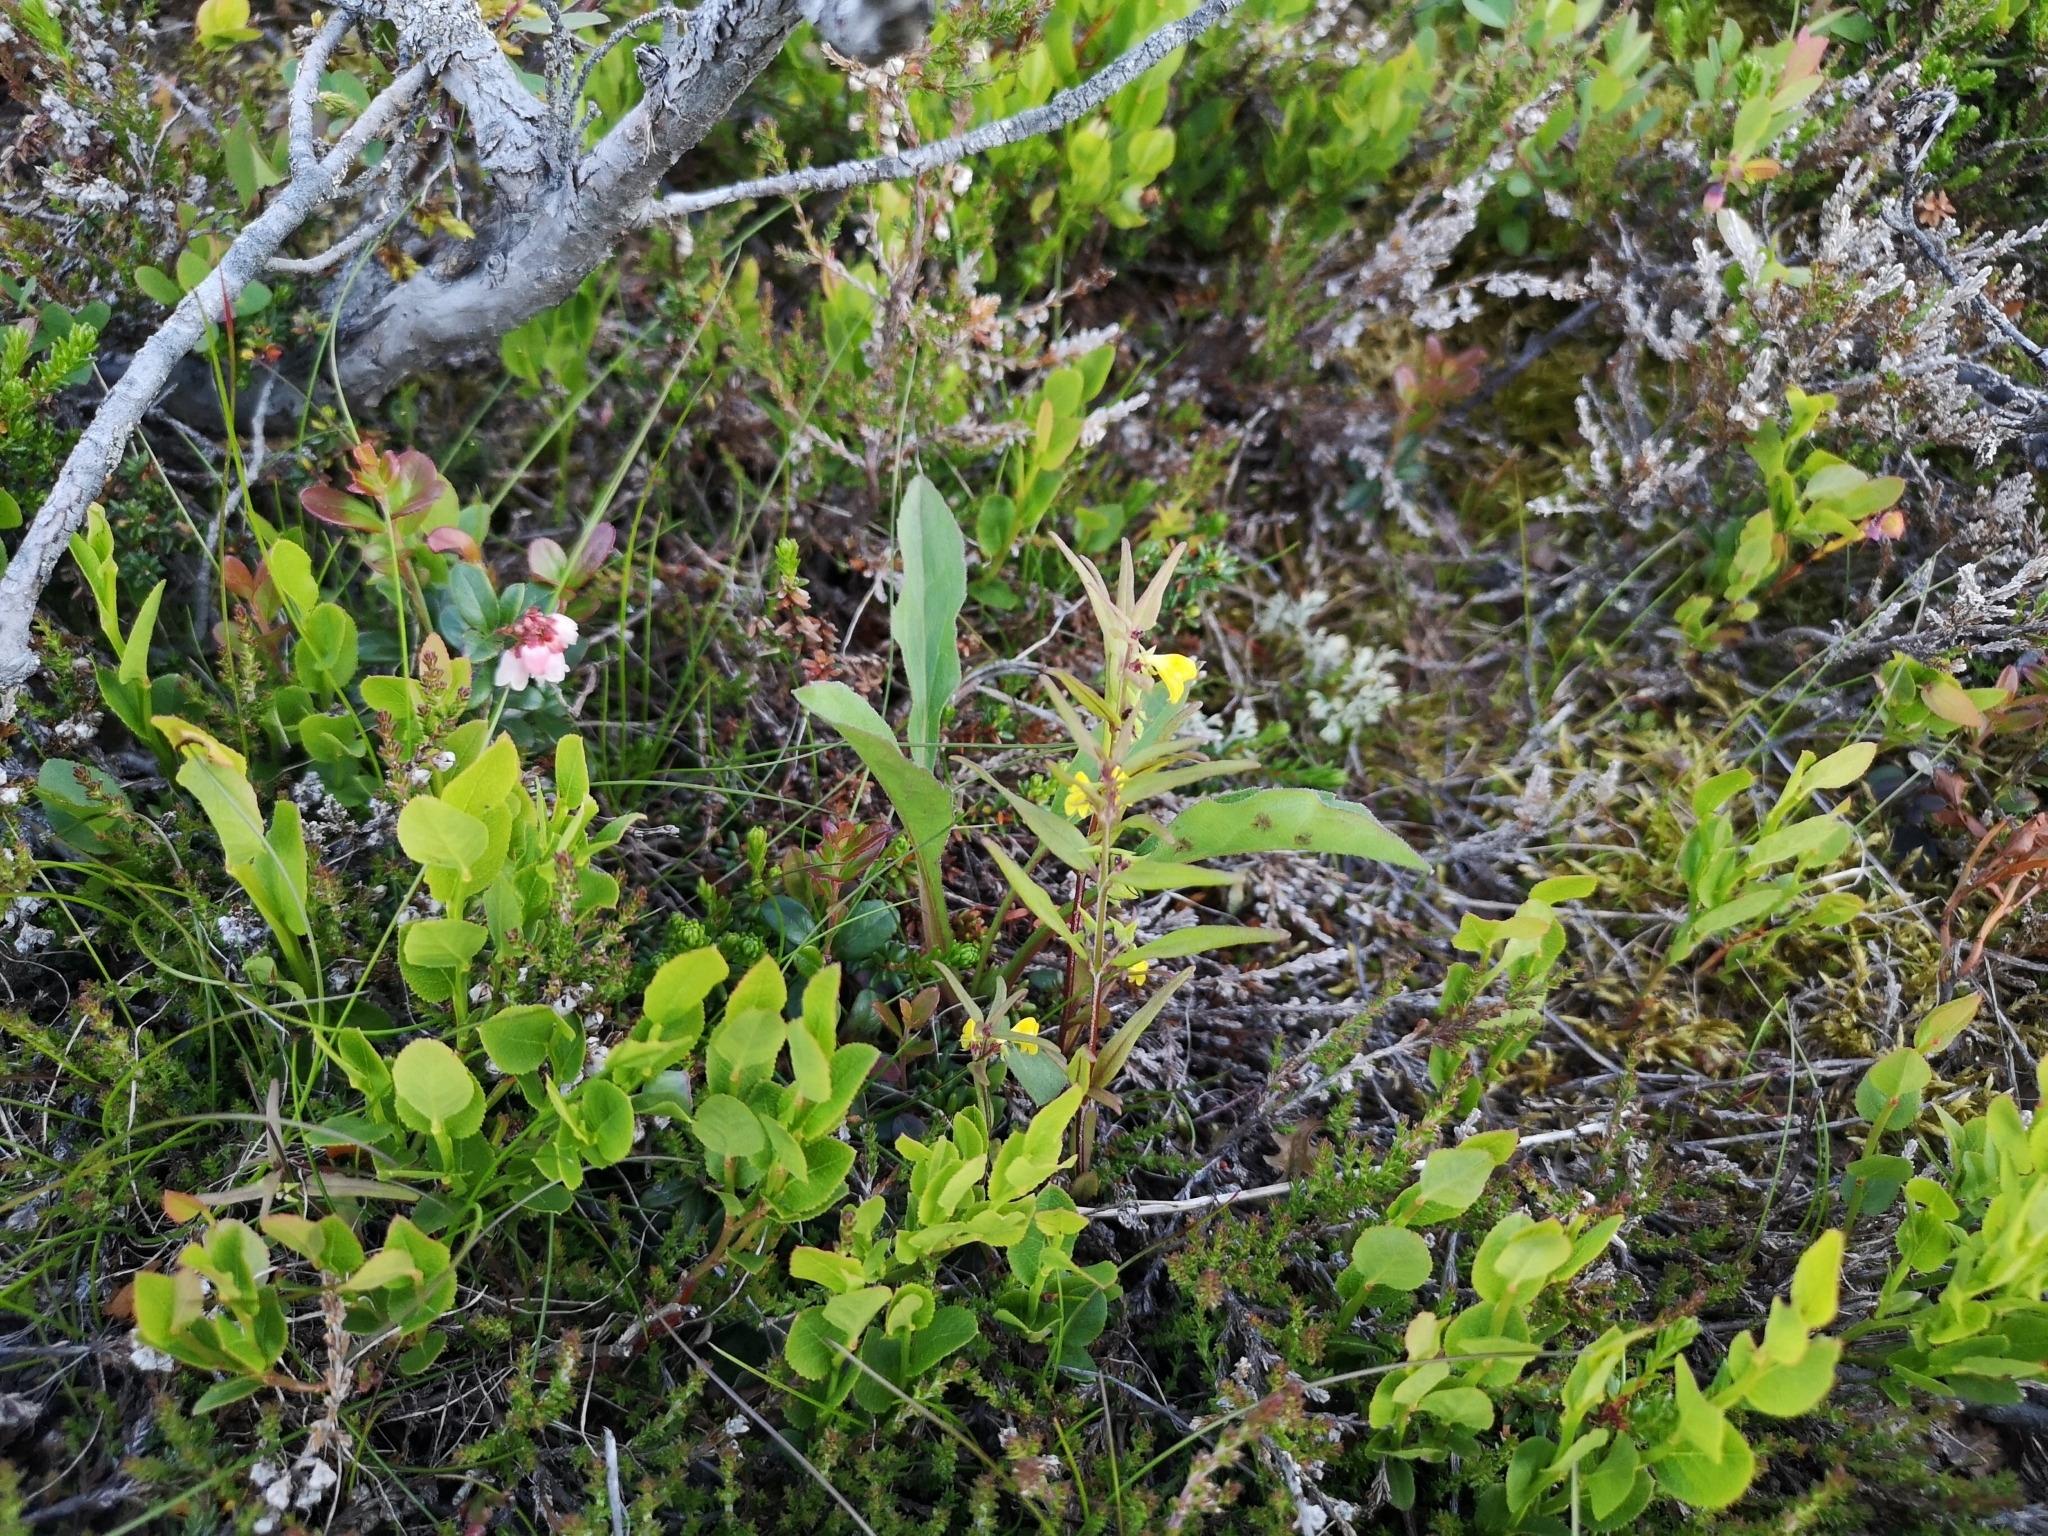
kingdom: Plantae
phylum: Tracheophyta
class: Magnoliopsida
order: Lamiales
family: Orobanchaceae
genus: Melampyrum
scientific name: Melampyrum sylvaticum
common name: Small cow-wheat
